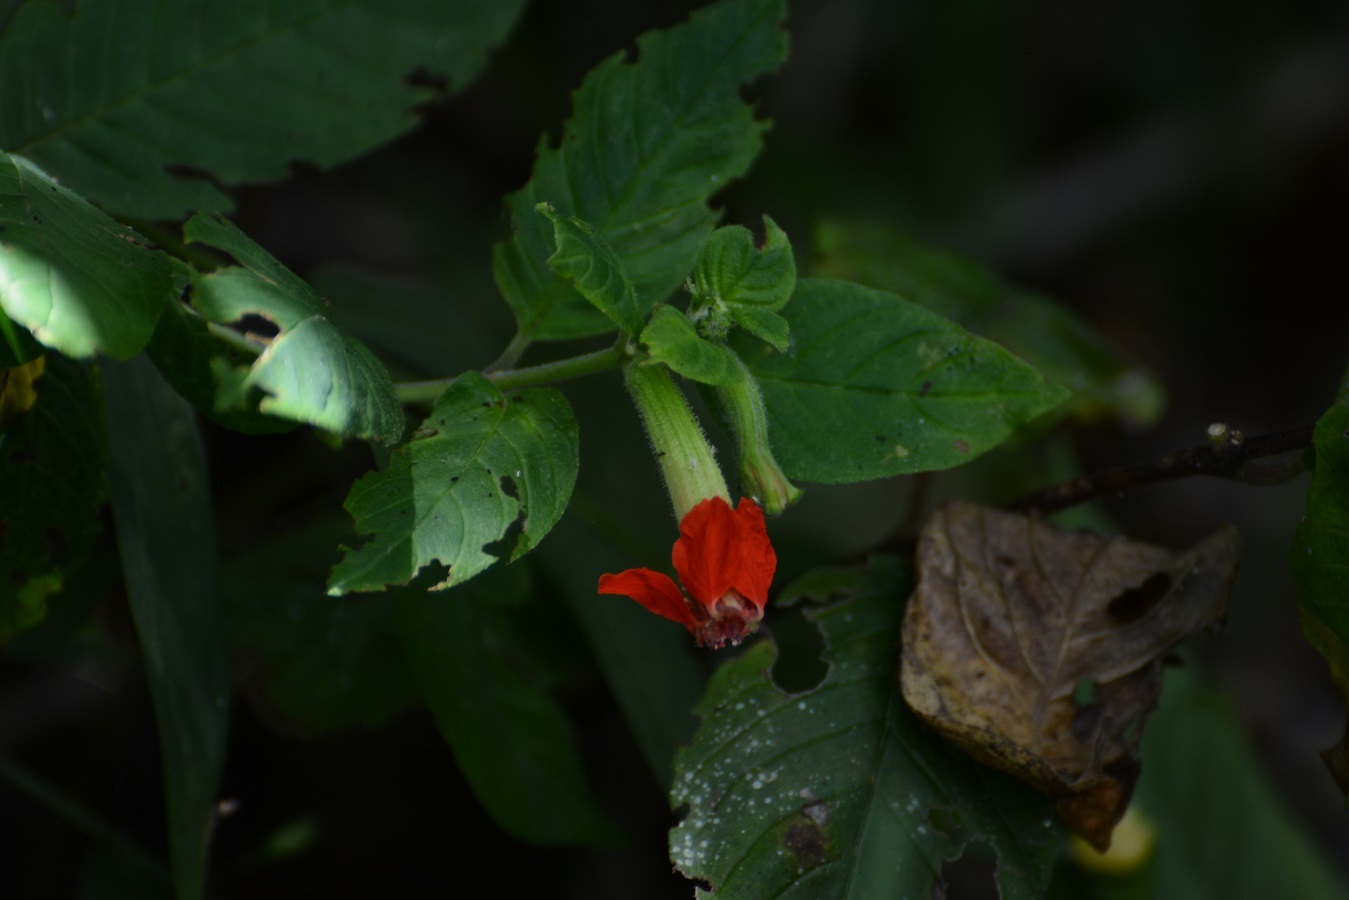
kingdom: Plantae
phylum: Tracheophyta
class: Magnoliopsida
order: Myrtales
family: Lythraceae
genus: Cuphea
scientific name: Cuphea intermedia
